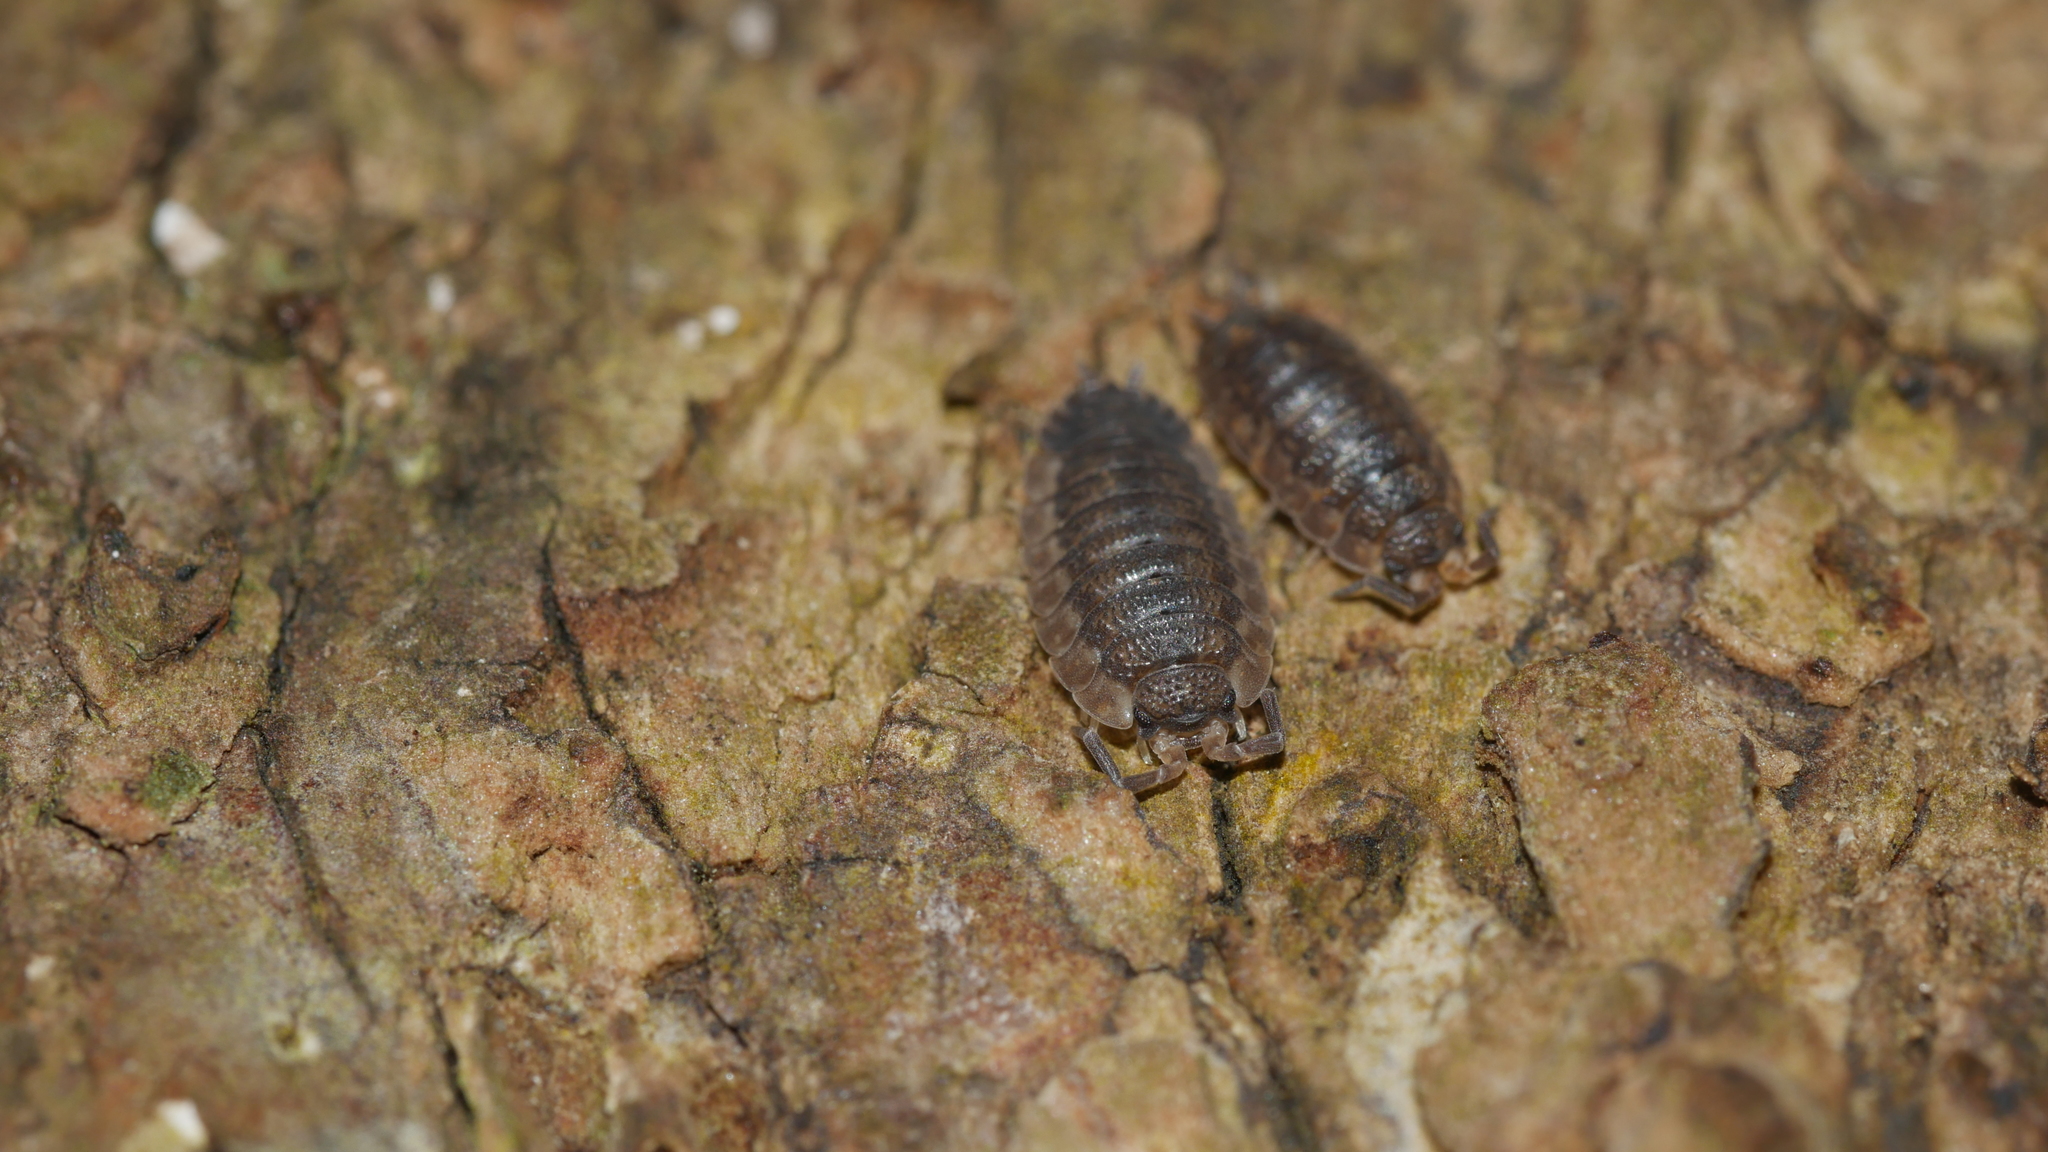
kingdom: Animalia
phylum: Arthropoda
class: Malacostraca
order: Isopoda
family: Porcellionidae
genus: Porcellio
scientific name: Porcellio scaber
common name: Common rough woodlouse
